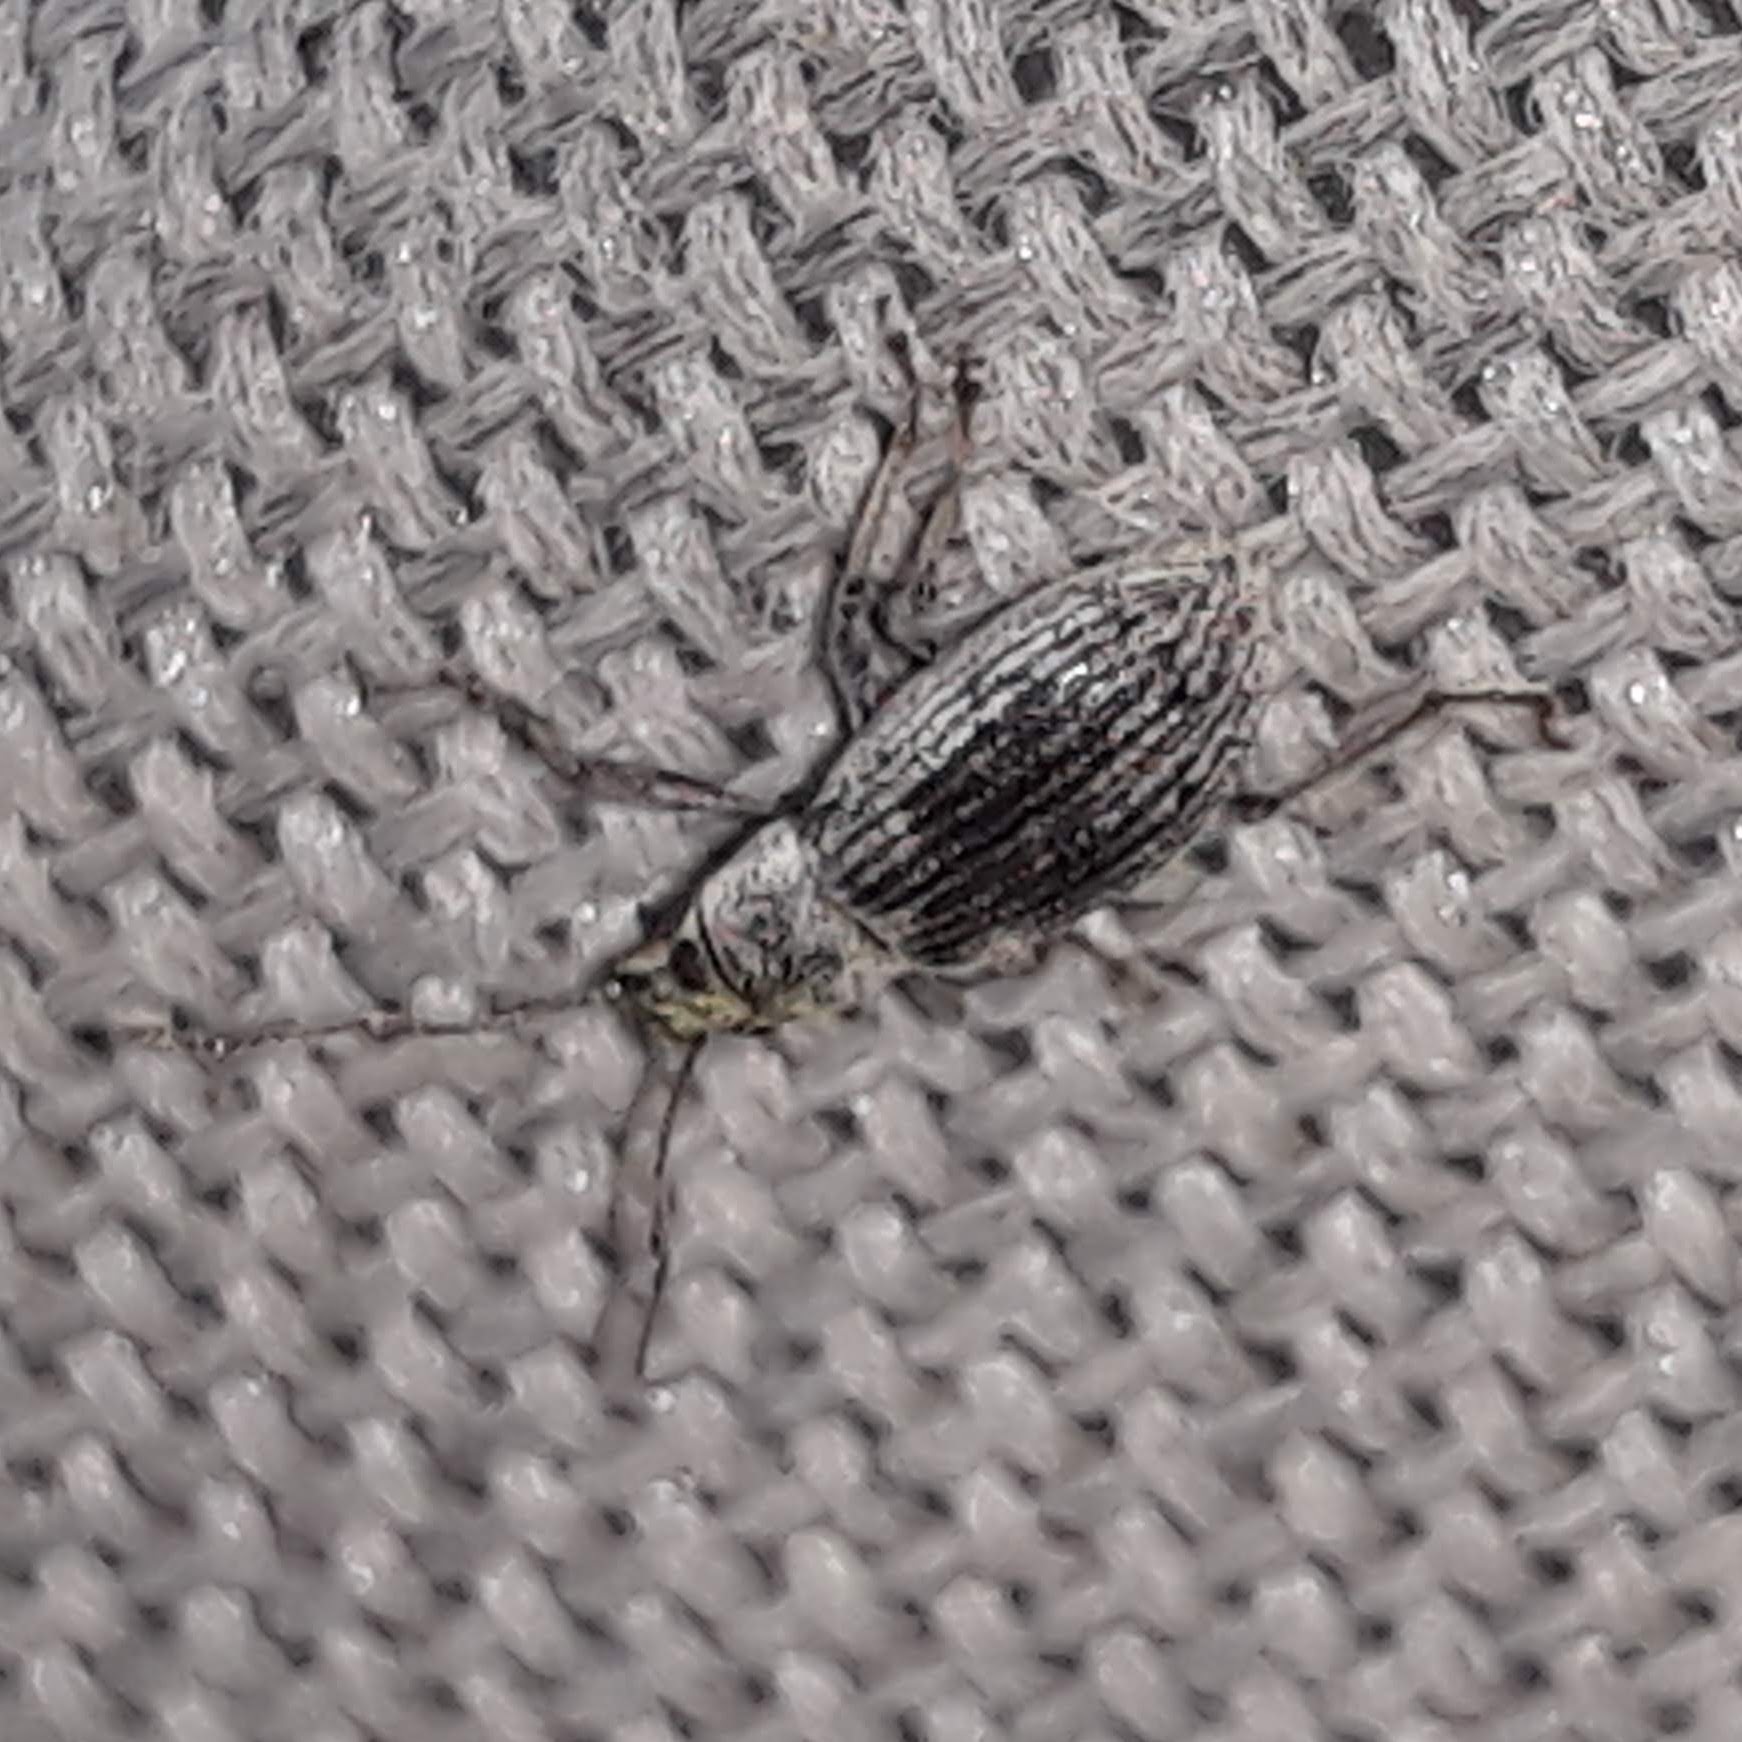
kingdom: Animalia
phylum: Arthropoda
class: Insecta
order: Coleoptera
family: Curculionidae
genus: Cyrtepistomus
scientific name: Cyrtepistomus castaneus
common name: Weevil
